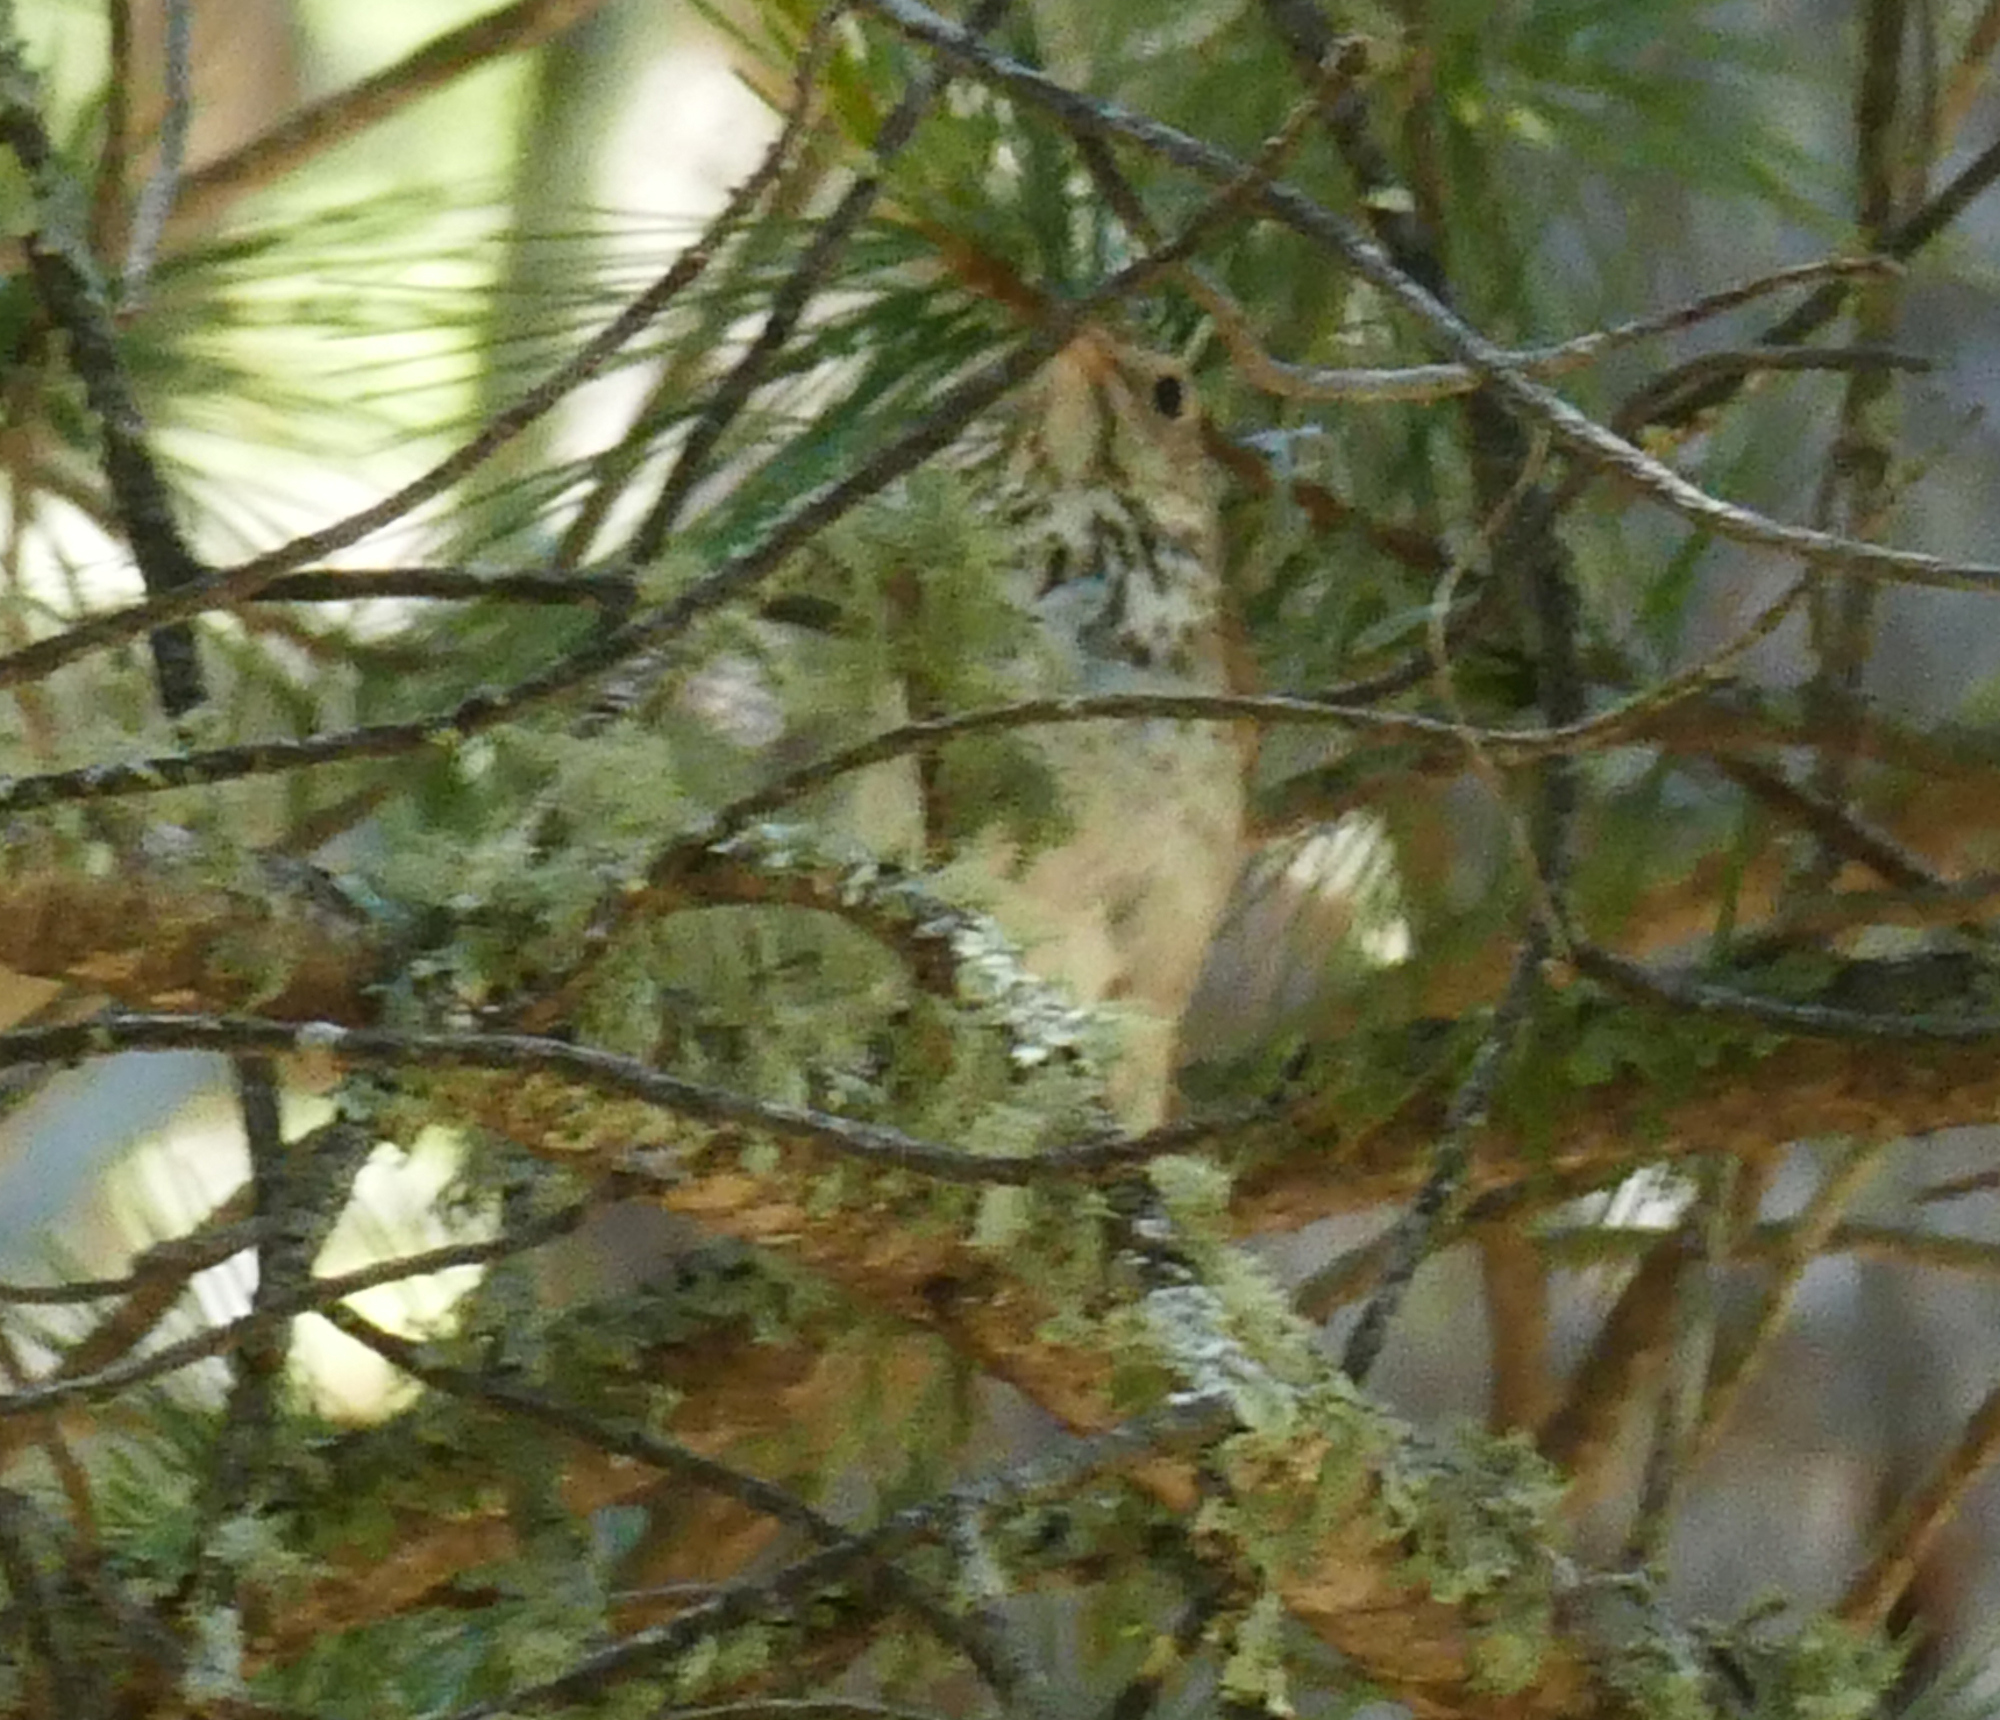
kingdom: Animalia
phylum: Chordata
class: Aves
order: Passeriformes
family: Turdidae
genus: Catharus
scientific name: Catharus guttatus
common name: Hermit thrush
